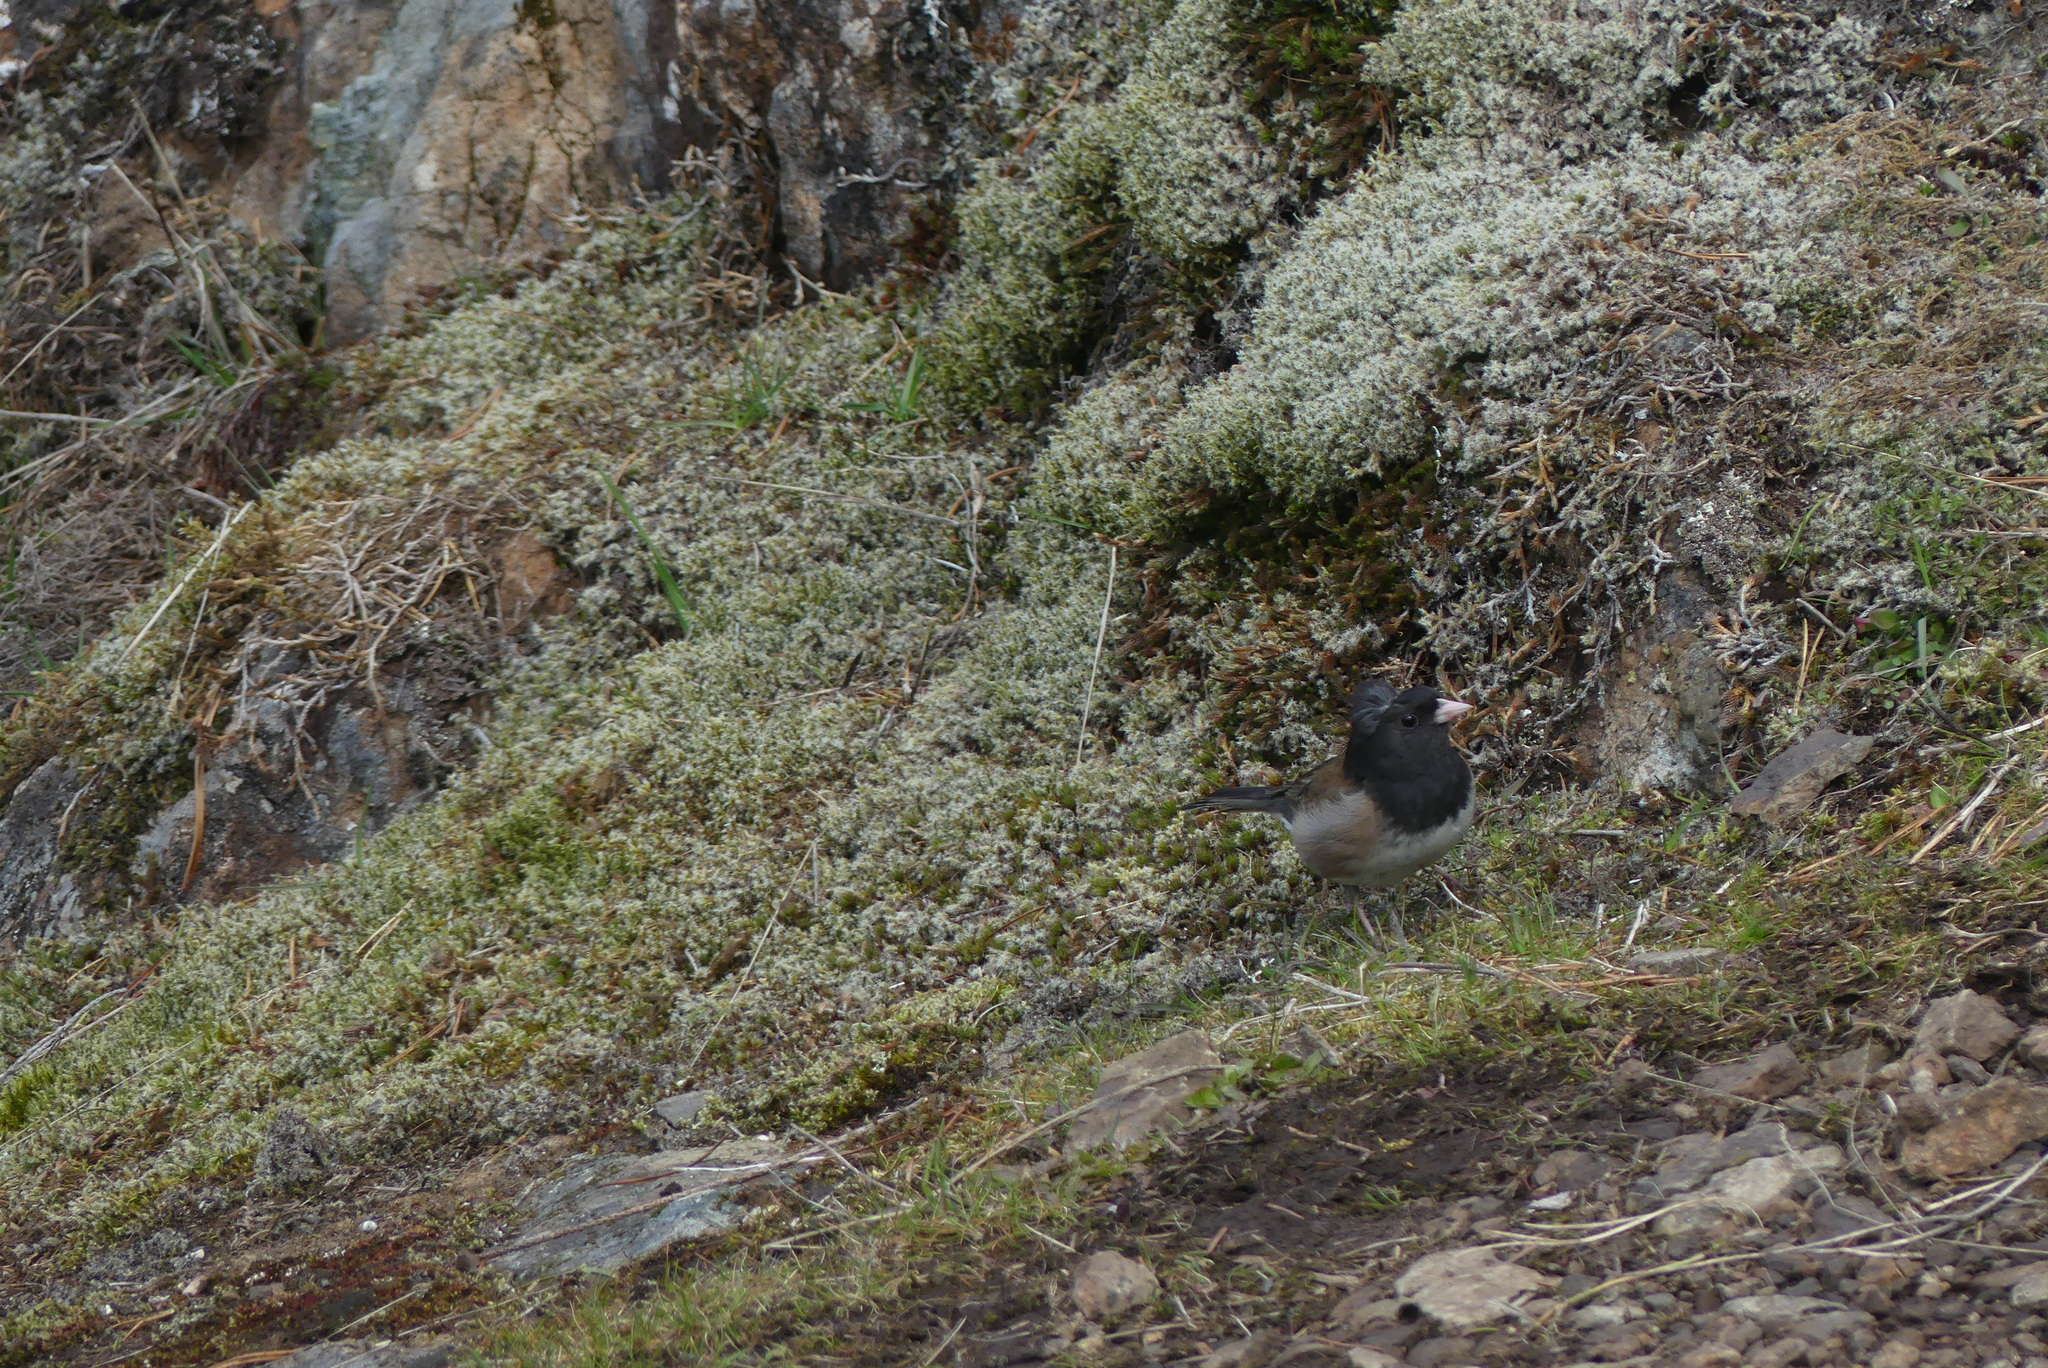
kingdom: Animalia
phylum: Chordata
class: Aves
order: Passeriformes
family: Passerellidae
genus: Junco
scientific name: Junco hyemalis
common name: Dark-eyed junco
